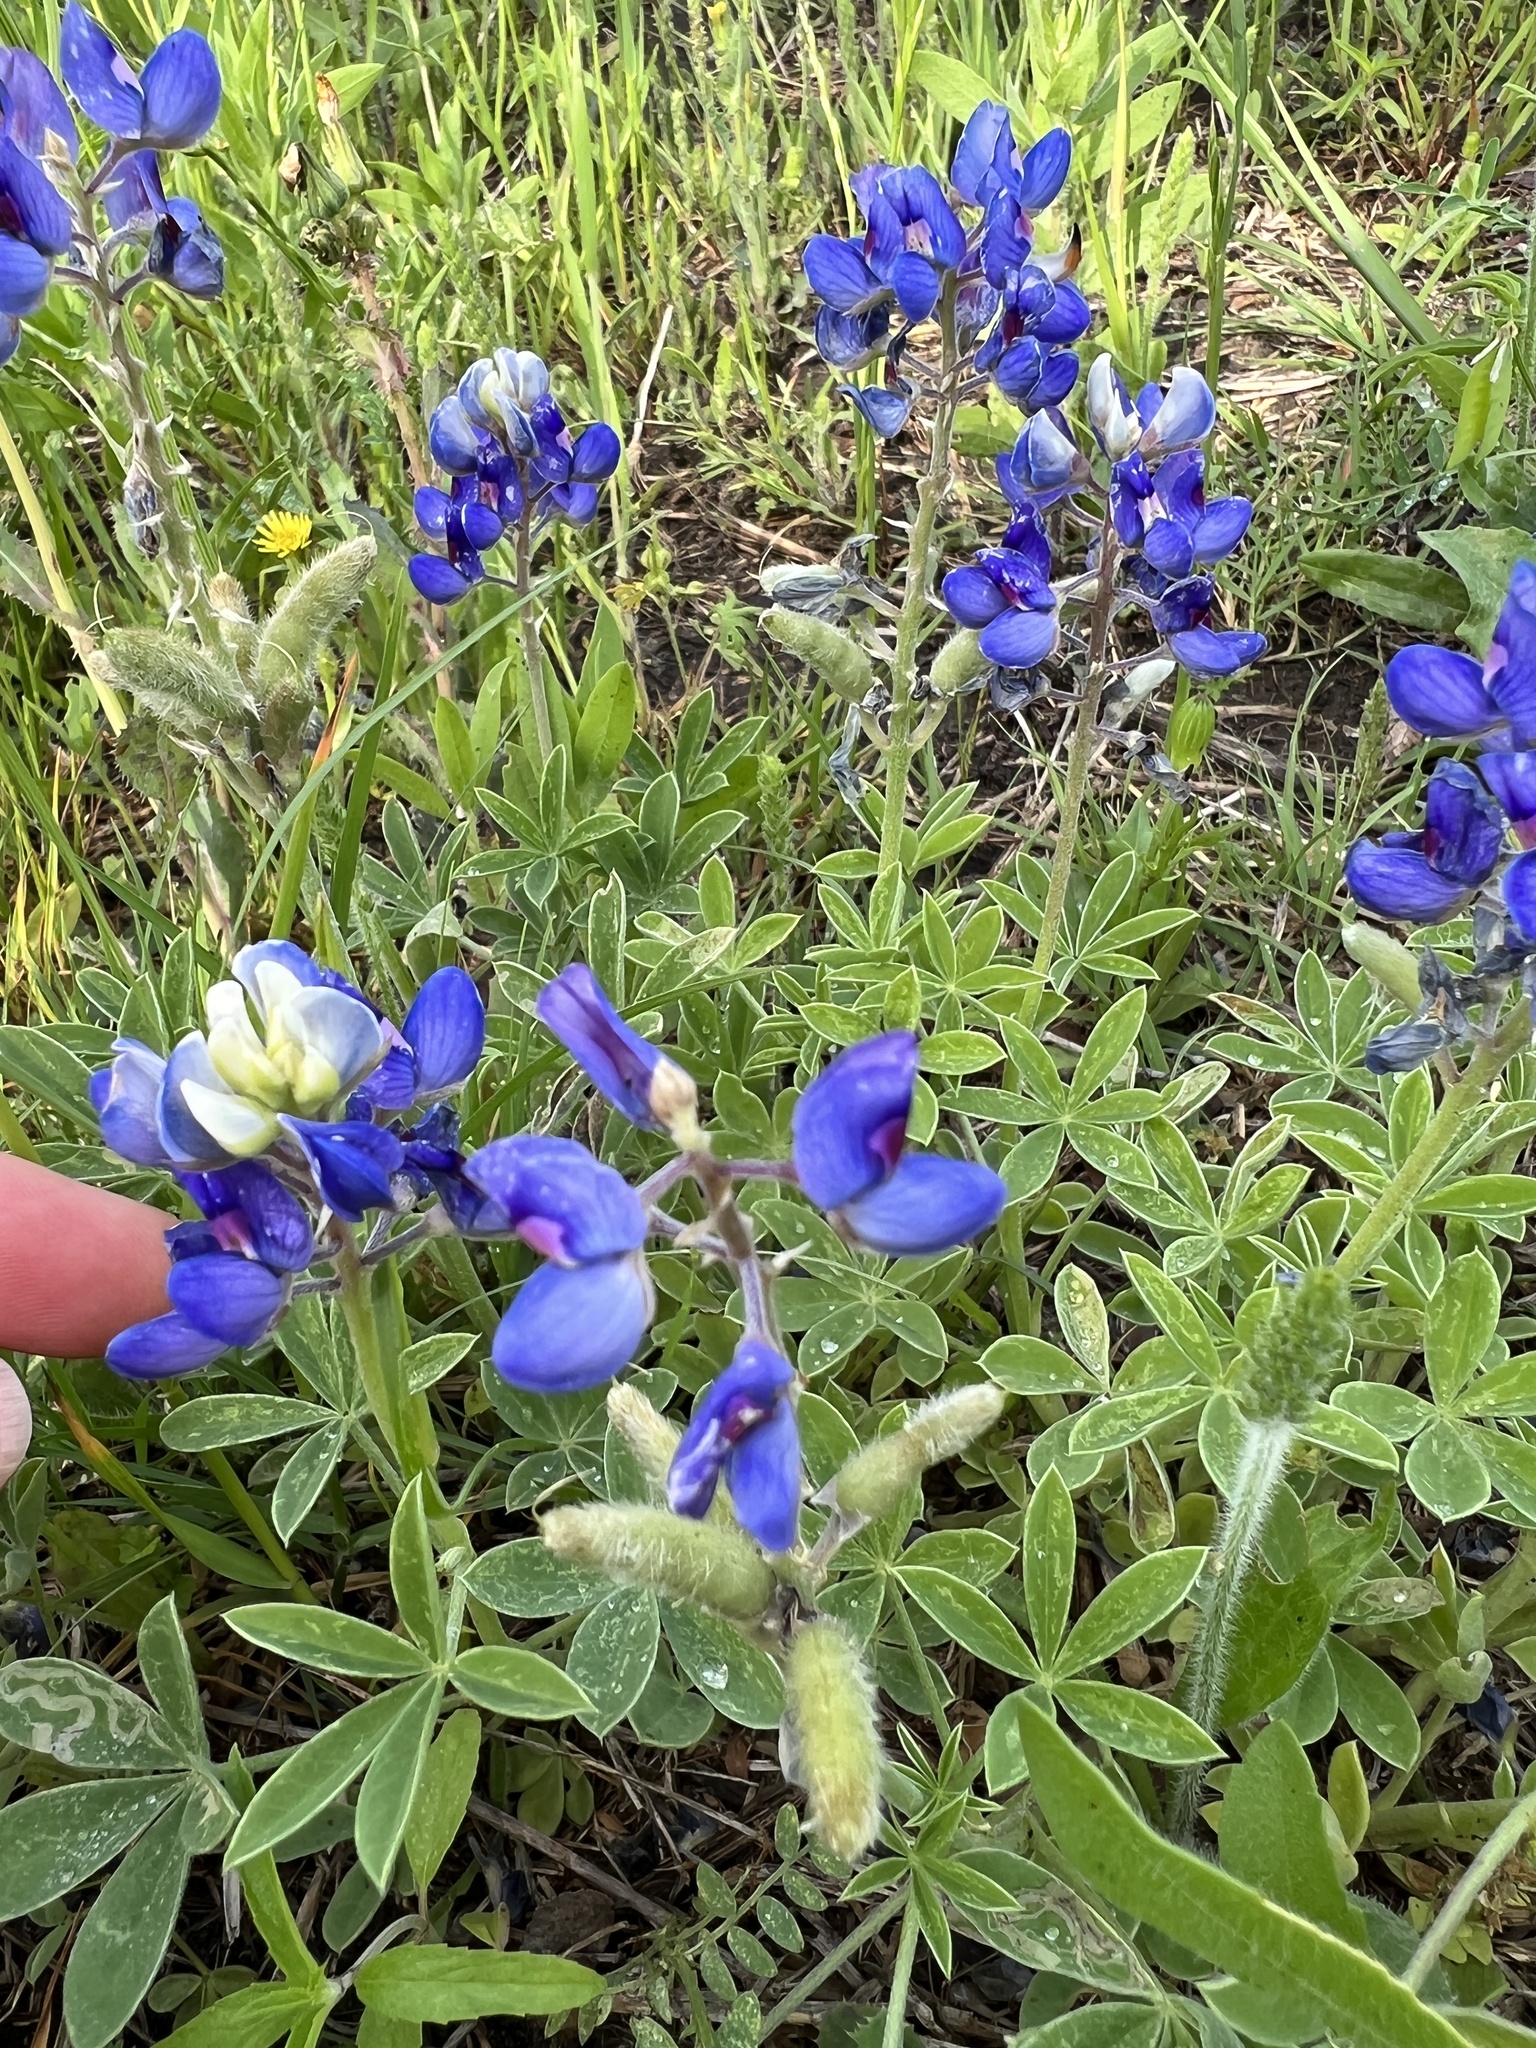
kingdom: Plantae
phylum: Tracheophyta
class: Magnoliopsida
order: Fabales
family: Fabaceae
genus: Lupinus
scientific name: Lupinus texensis
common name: Texas bluebonnet
